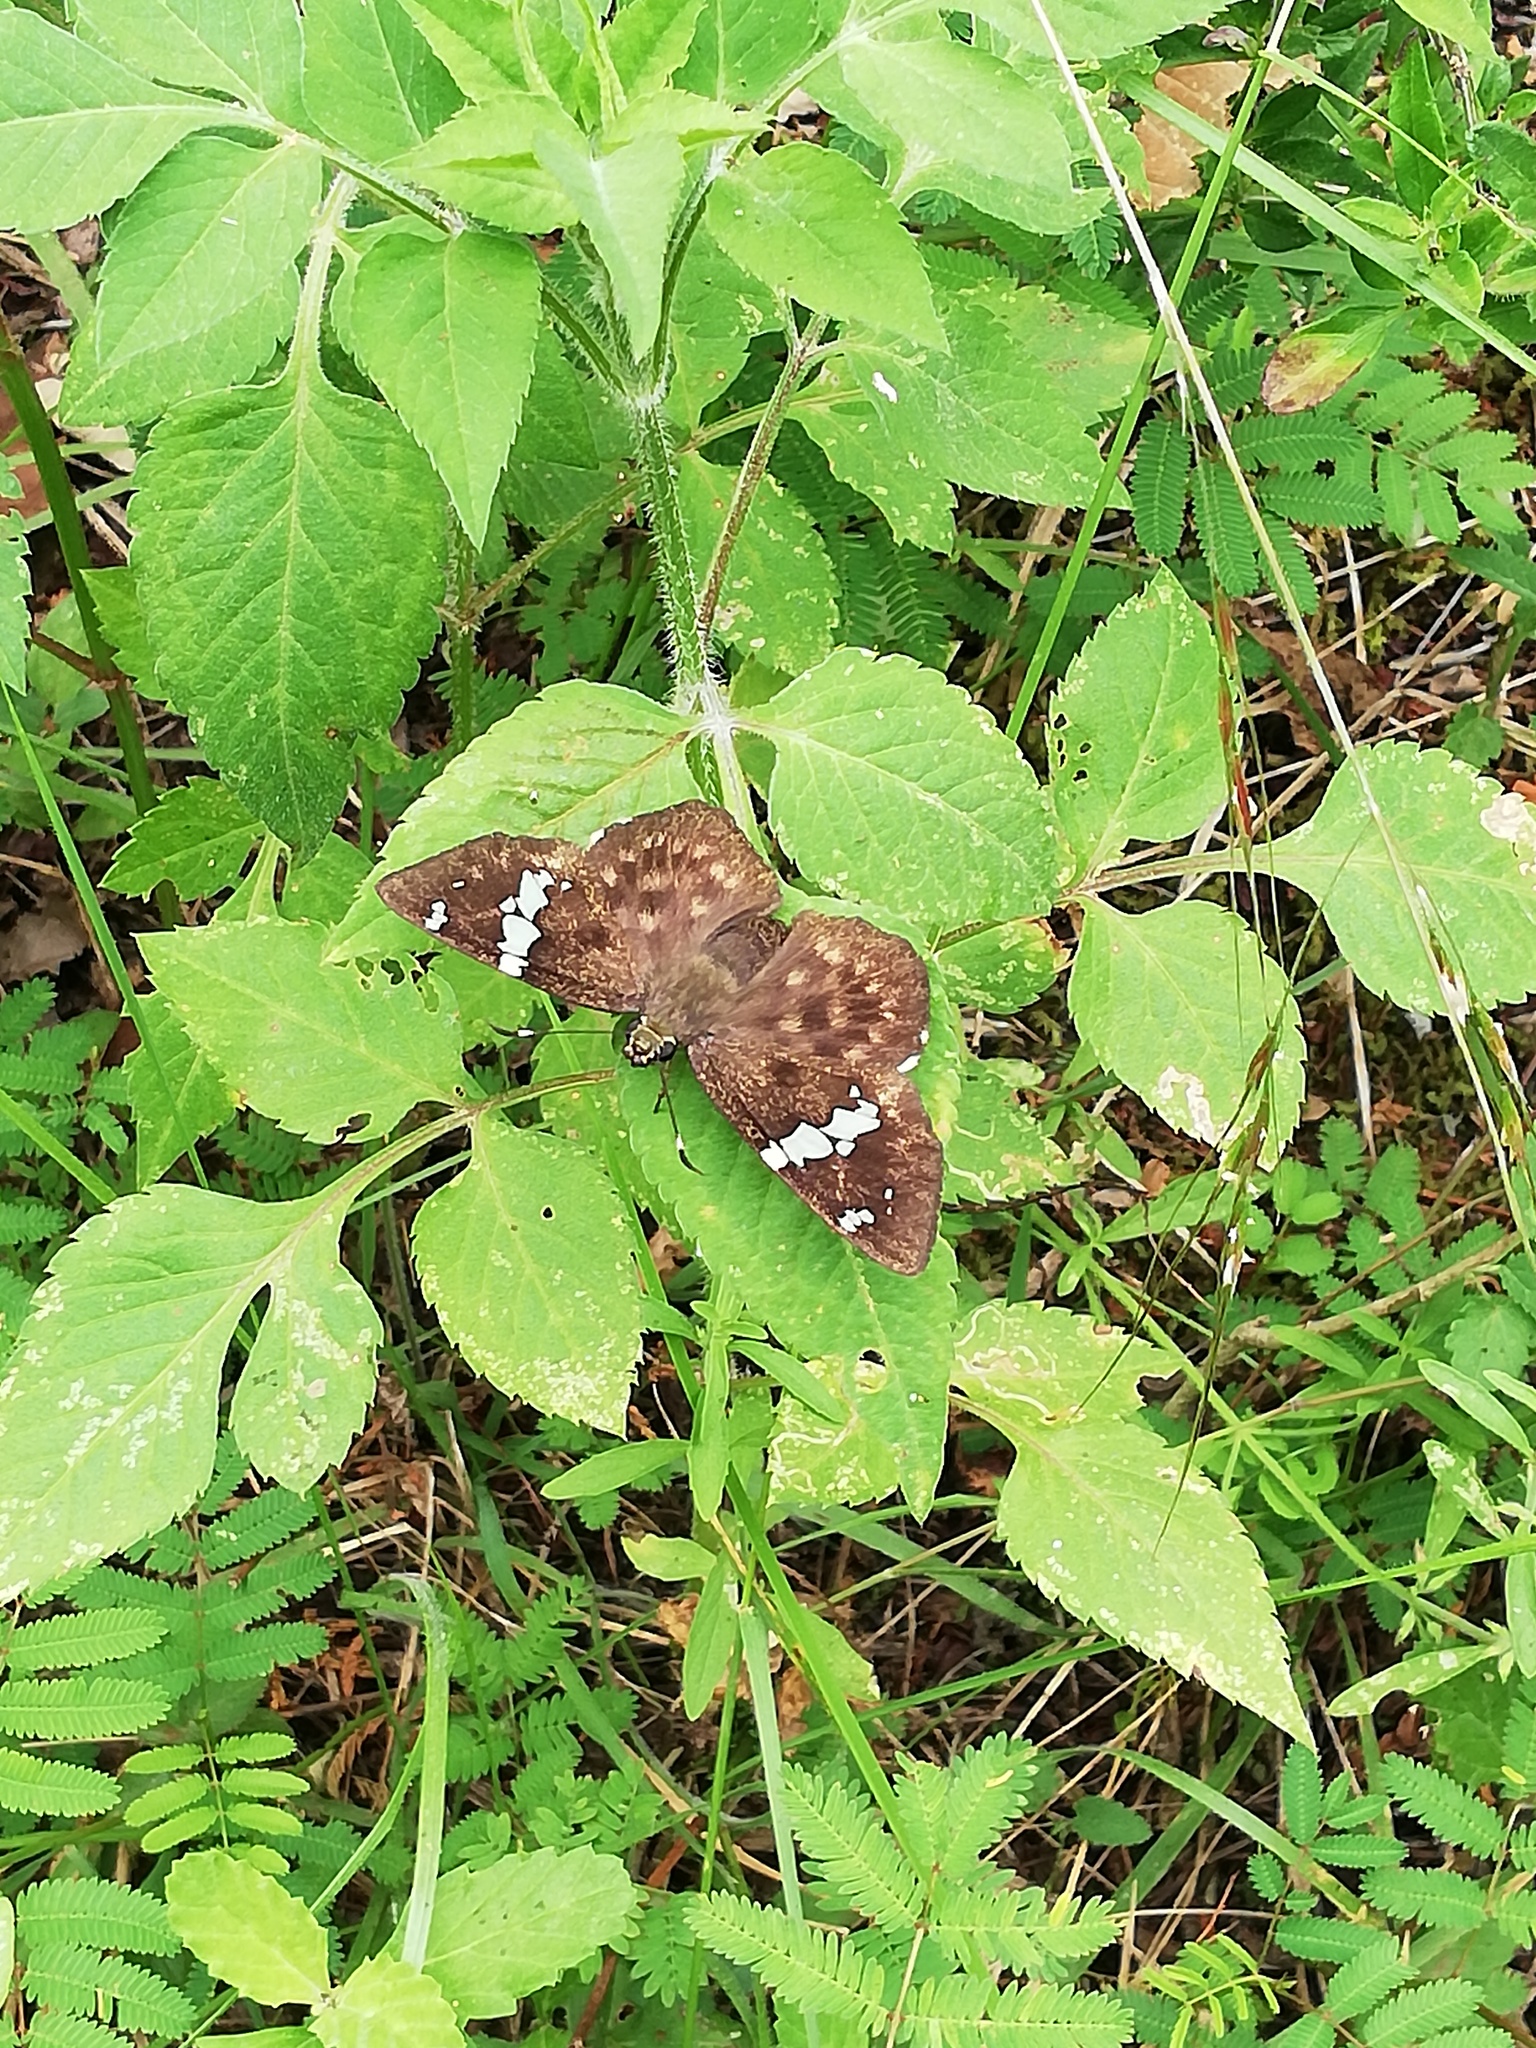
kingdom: Animalia
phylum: Arthropoda
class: Insecta
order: Lepidoptera
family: Hesperiidae
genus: Celaenorrhinus
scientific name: Celaenorrhinus stallingsi
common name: Stallings's flat
